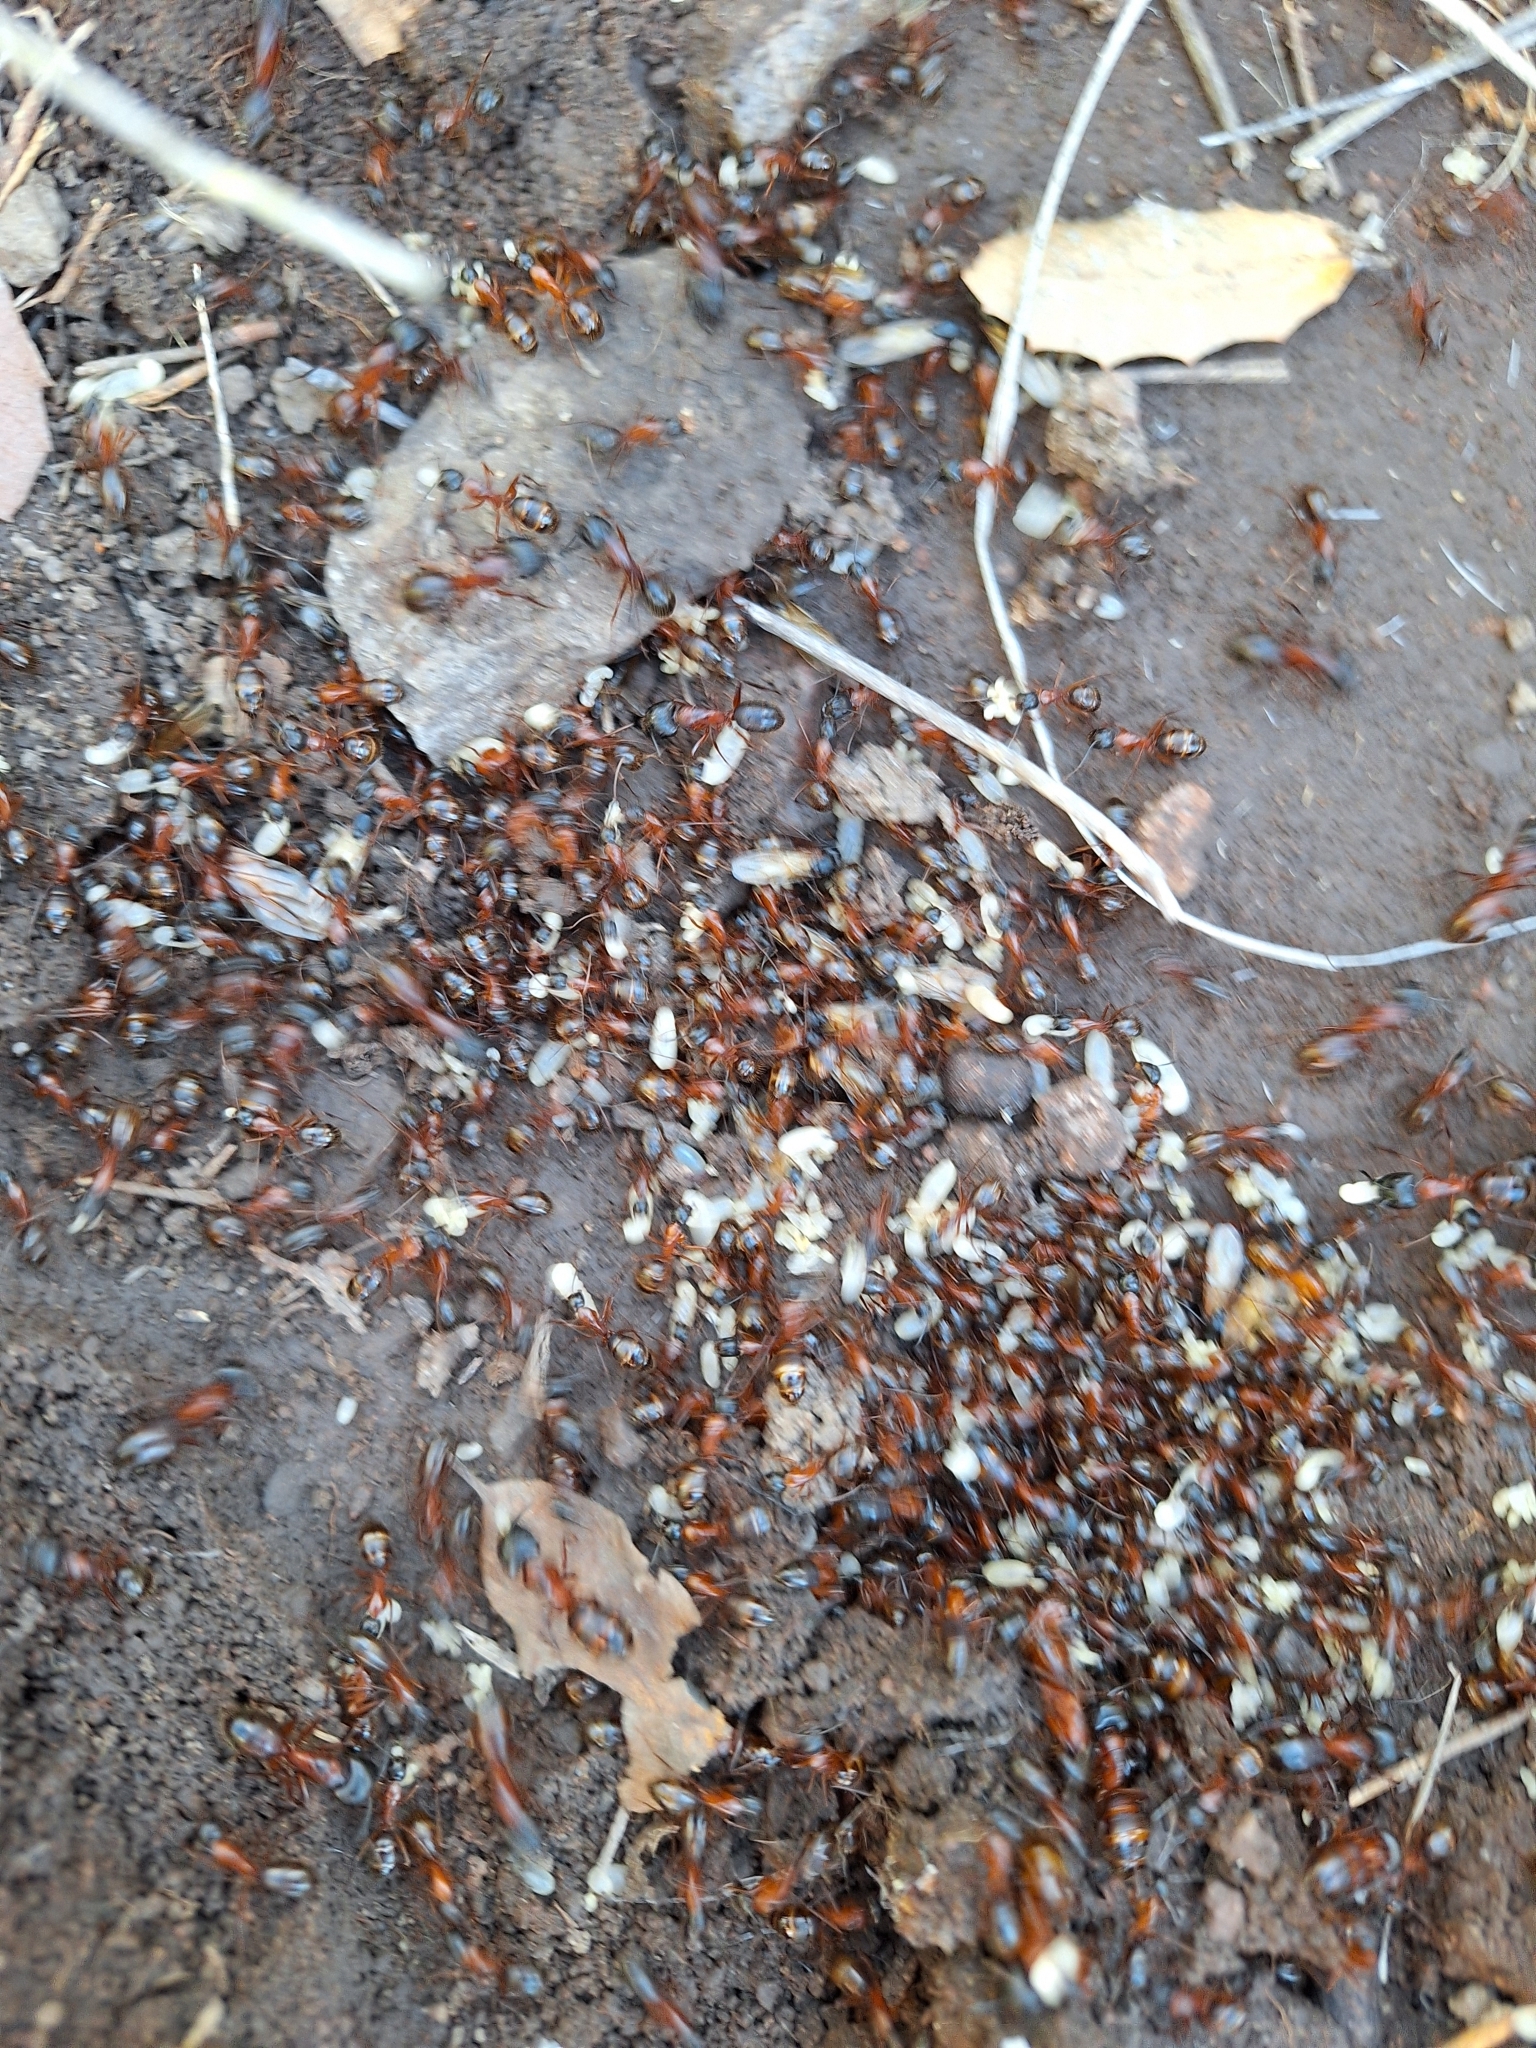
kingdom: Animalia
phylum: Arthropoda
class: Insecta
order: Hymenoptera
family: Formicidae
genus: Camponotus
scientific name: Camponotus semitestaceus
